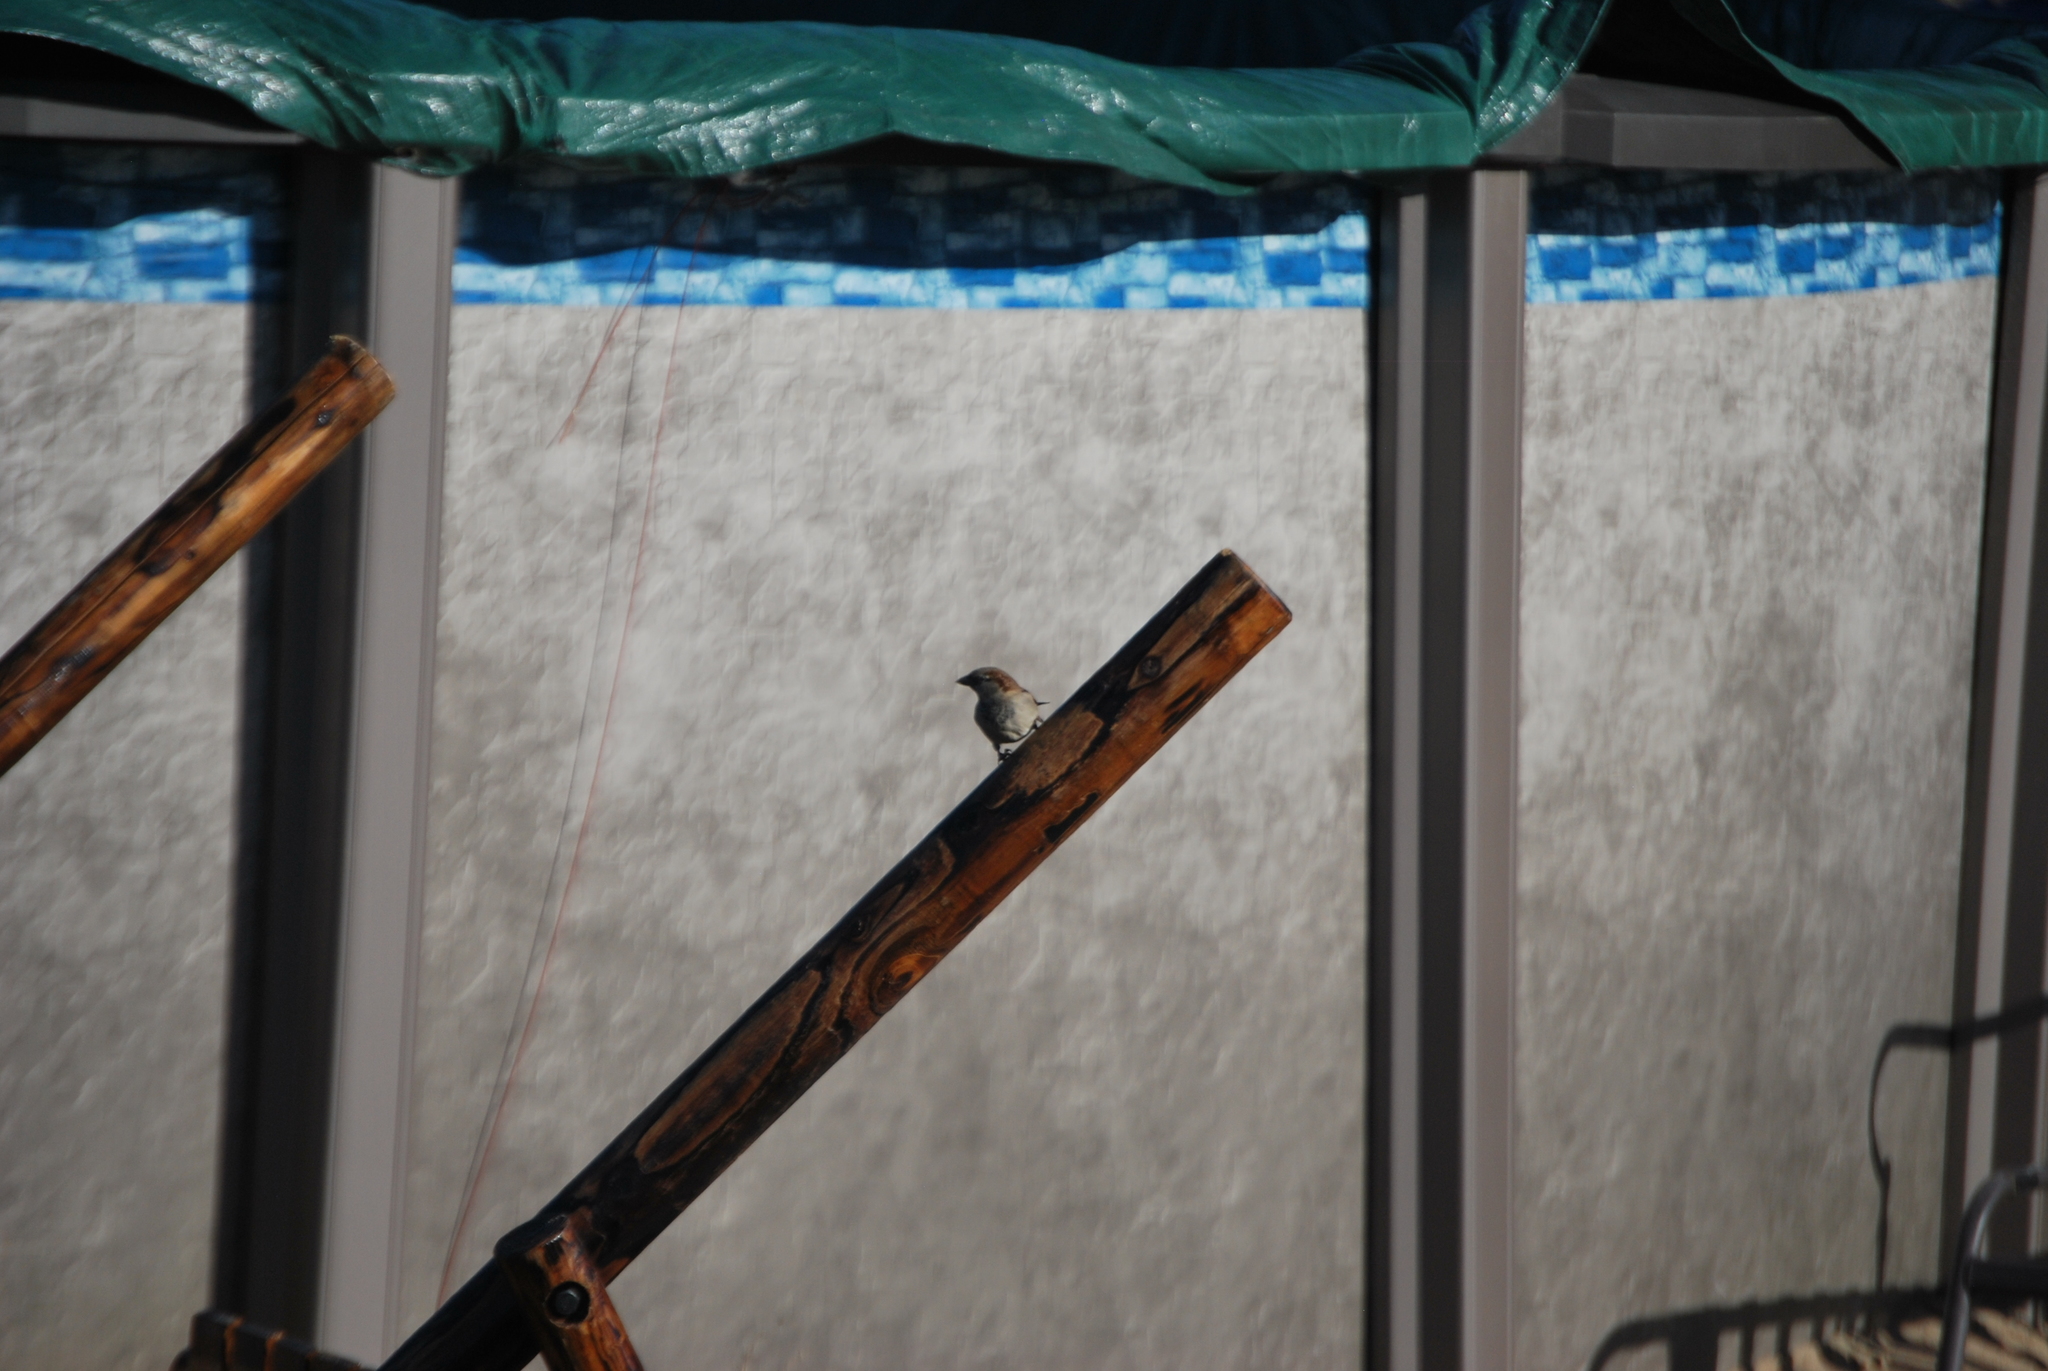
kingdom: Animalia
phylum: Chordata
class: Aves
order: Passeriformes
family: Passeridae
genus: Passer
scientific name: Passer domesticus
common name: House sparrow
